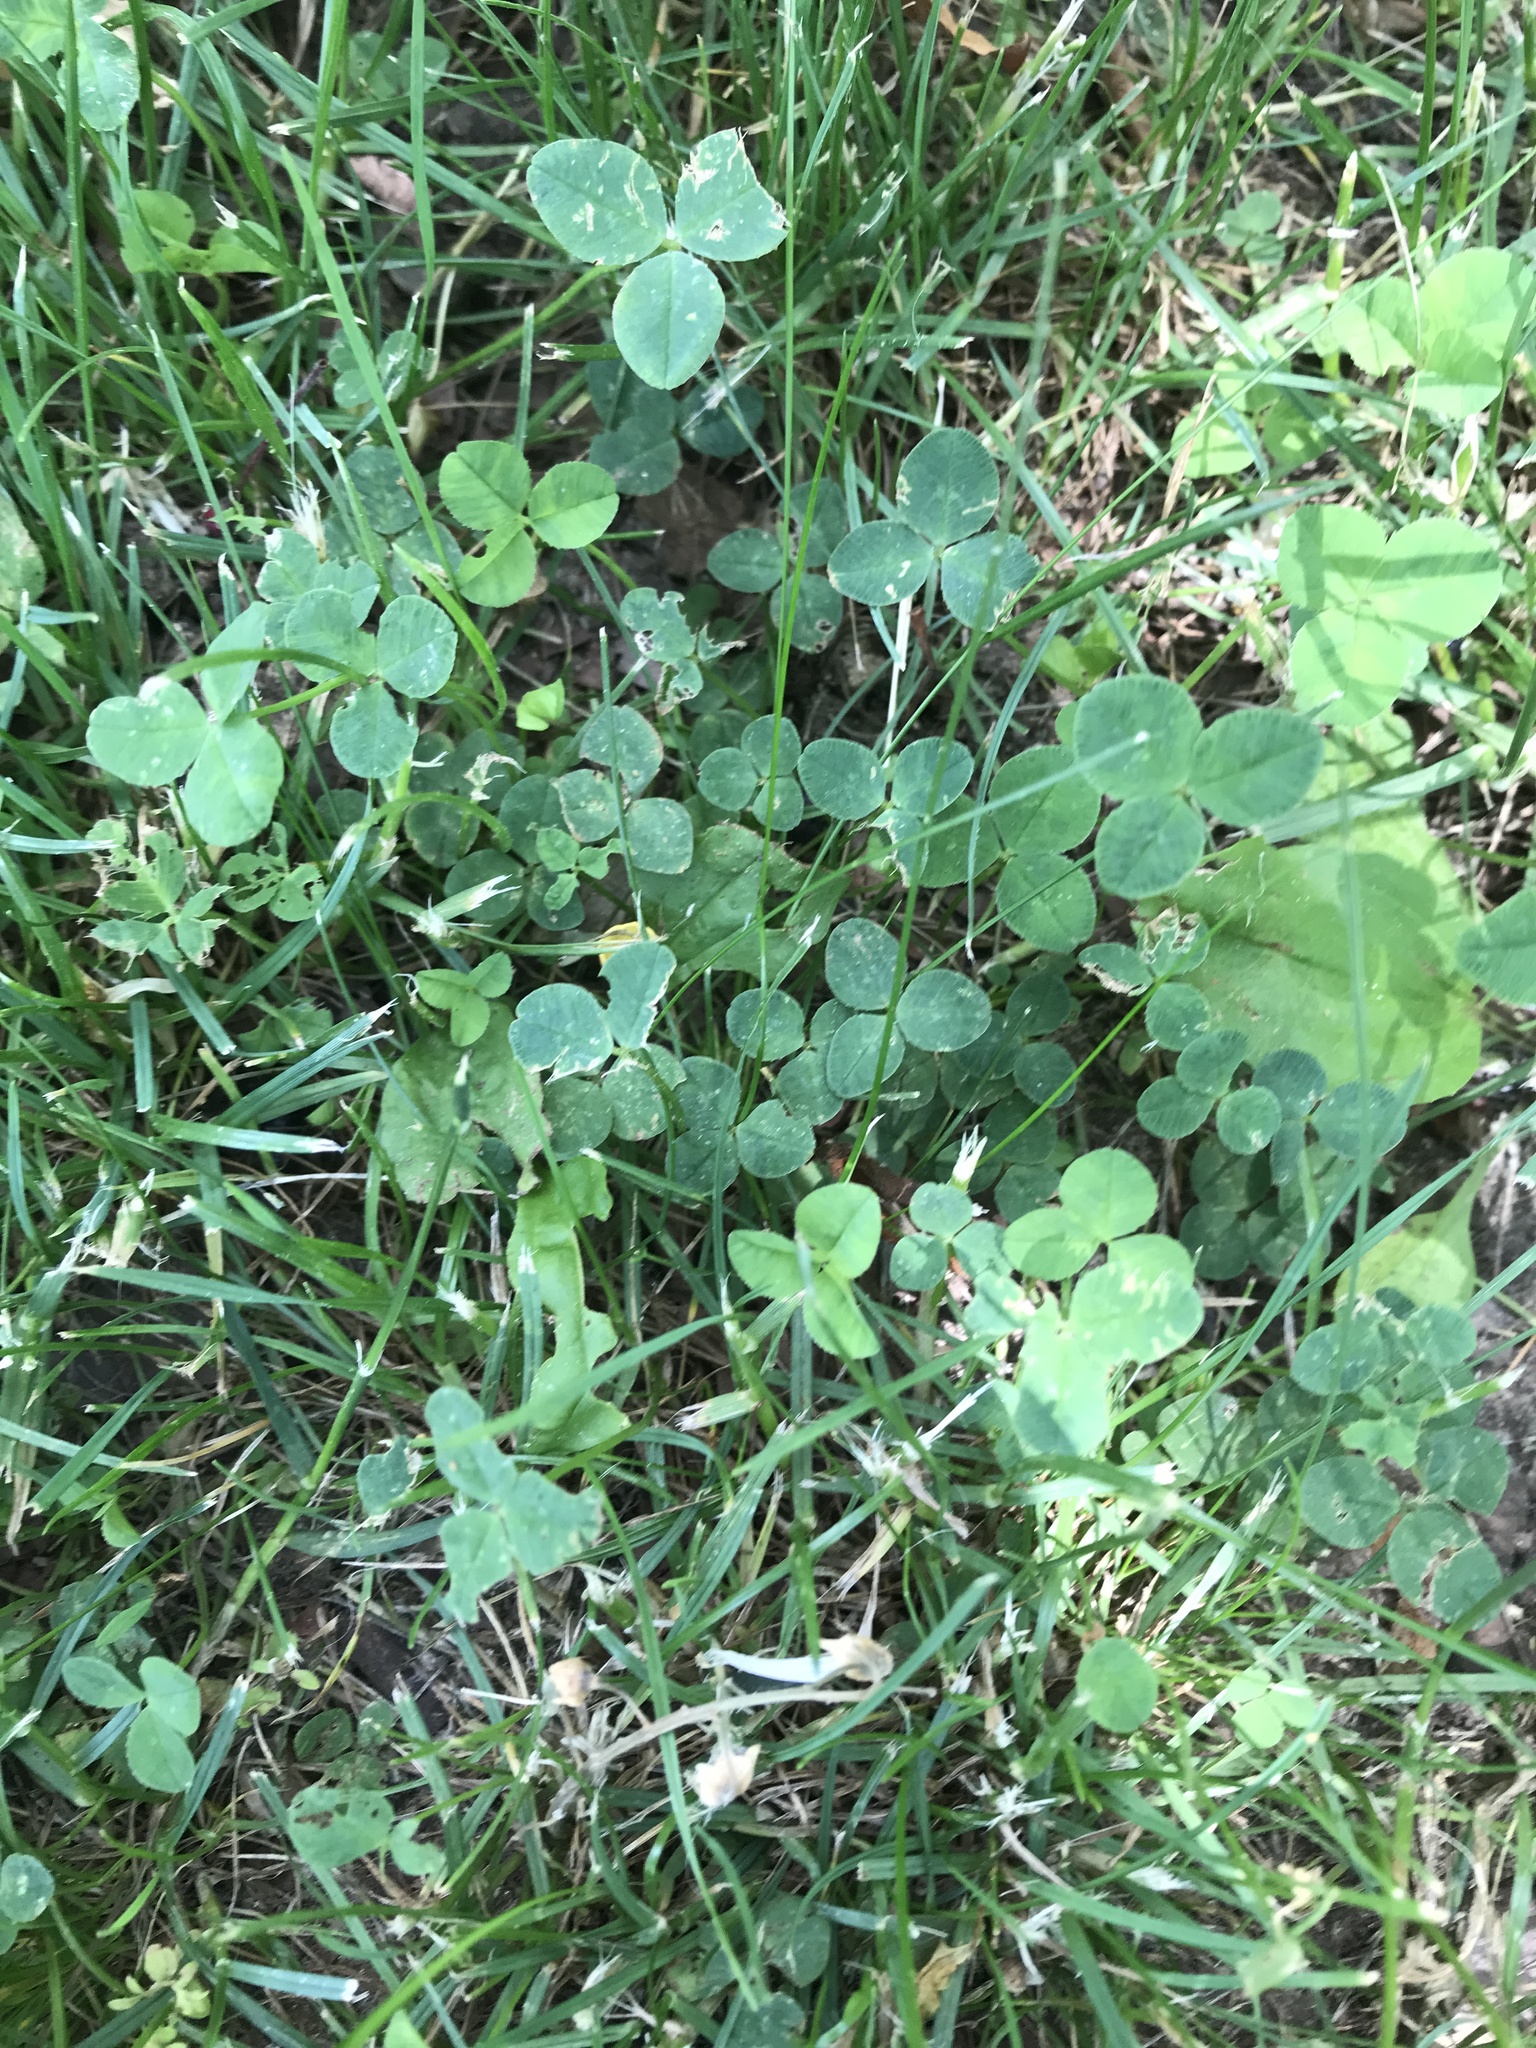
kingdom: Plantae
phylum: Tracheophyta
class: Magnoliopsida
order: Fabales
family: Fabaceae
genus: Trifolium
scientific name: Trifolium repens
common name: White clover
